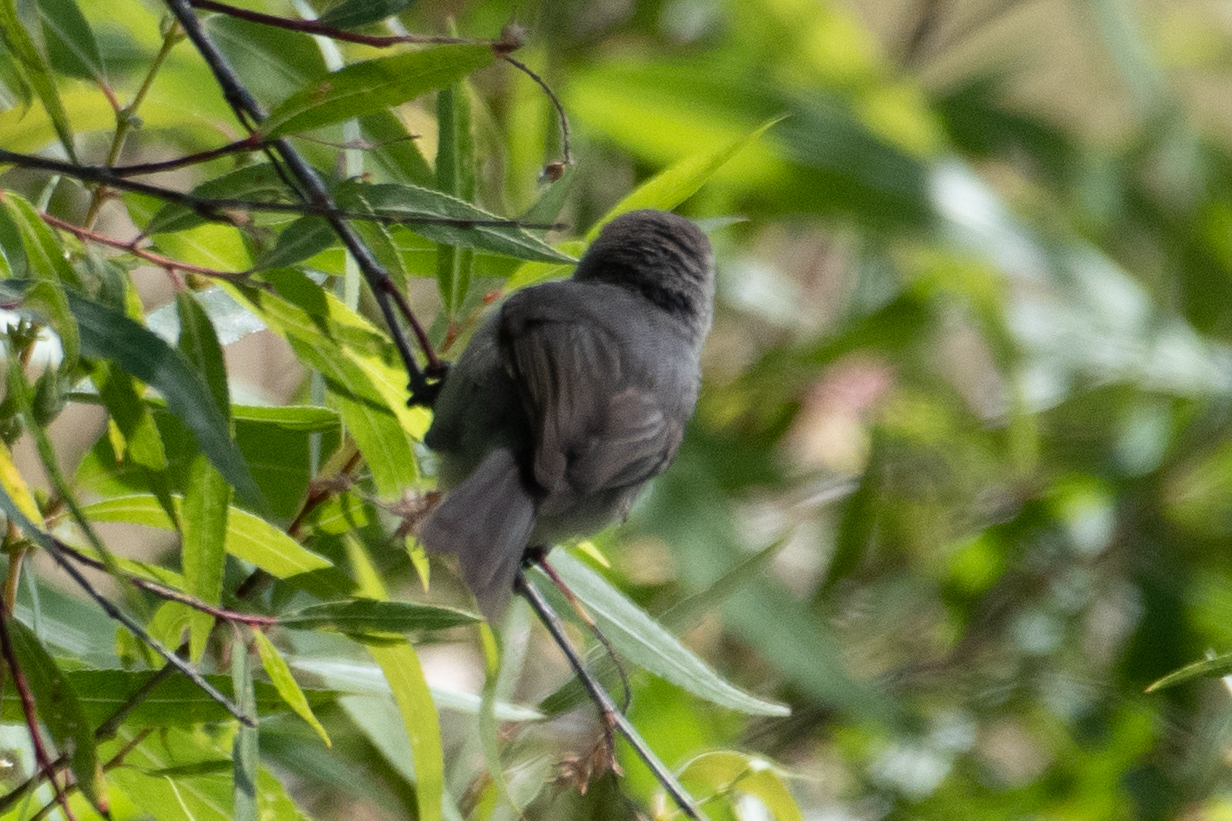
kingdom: Animalia
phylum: Chordata
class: Aves
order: Passeriformes
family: Aegithalidae
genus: Psaltriparus
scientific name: Psaltriparus minimus
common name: American bushtit
